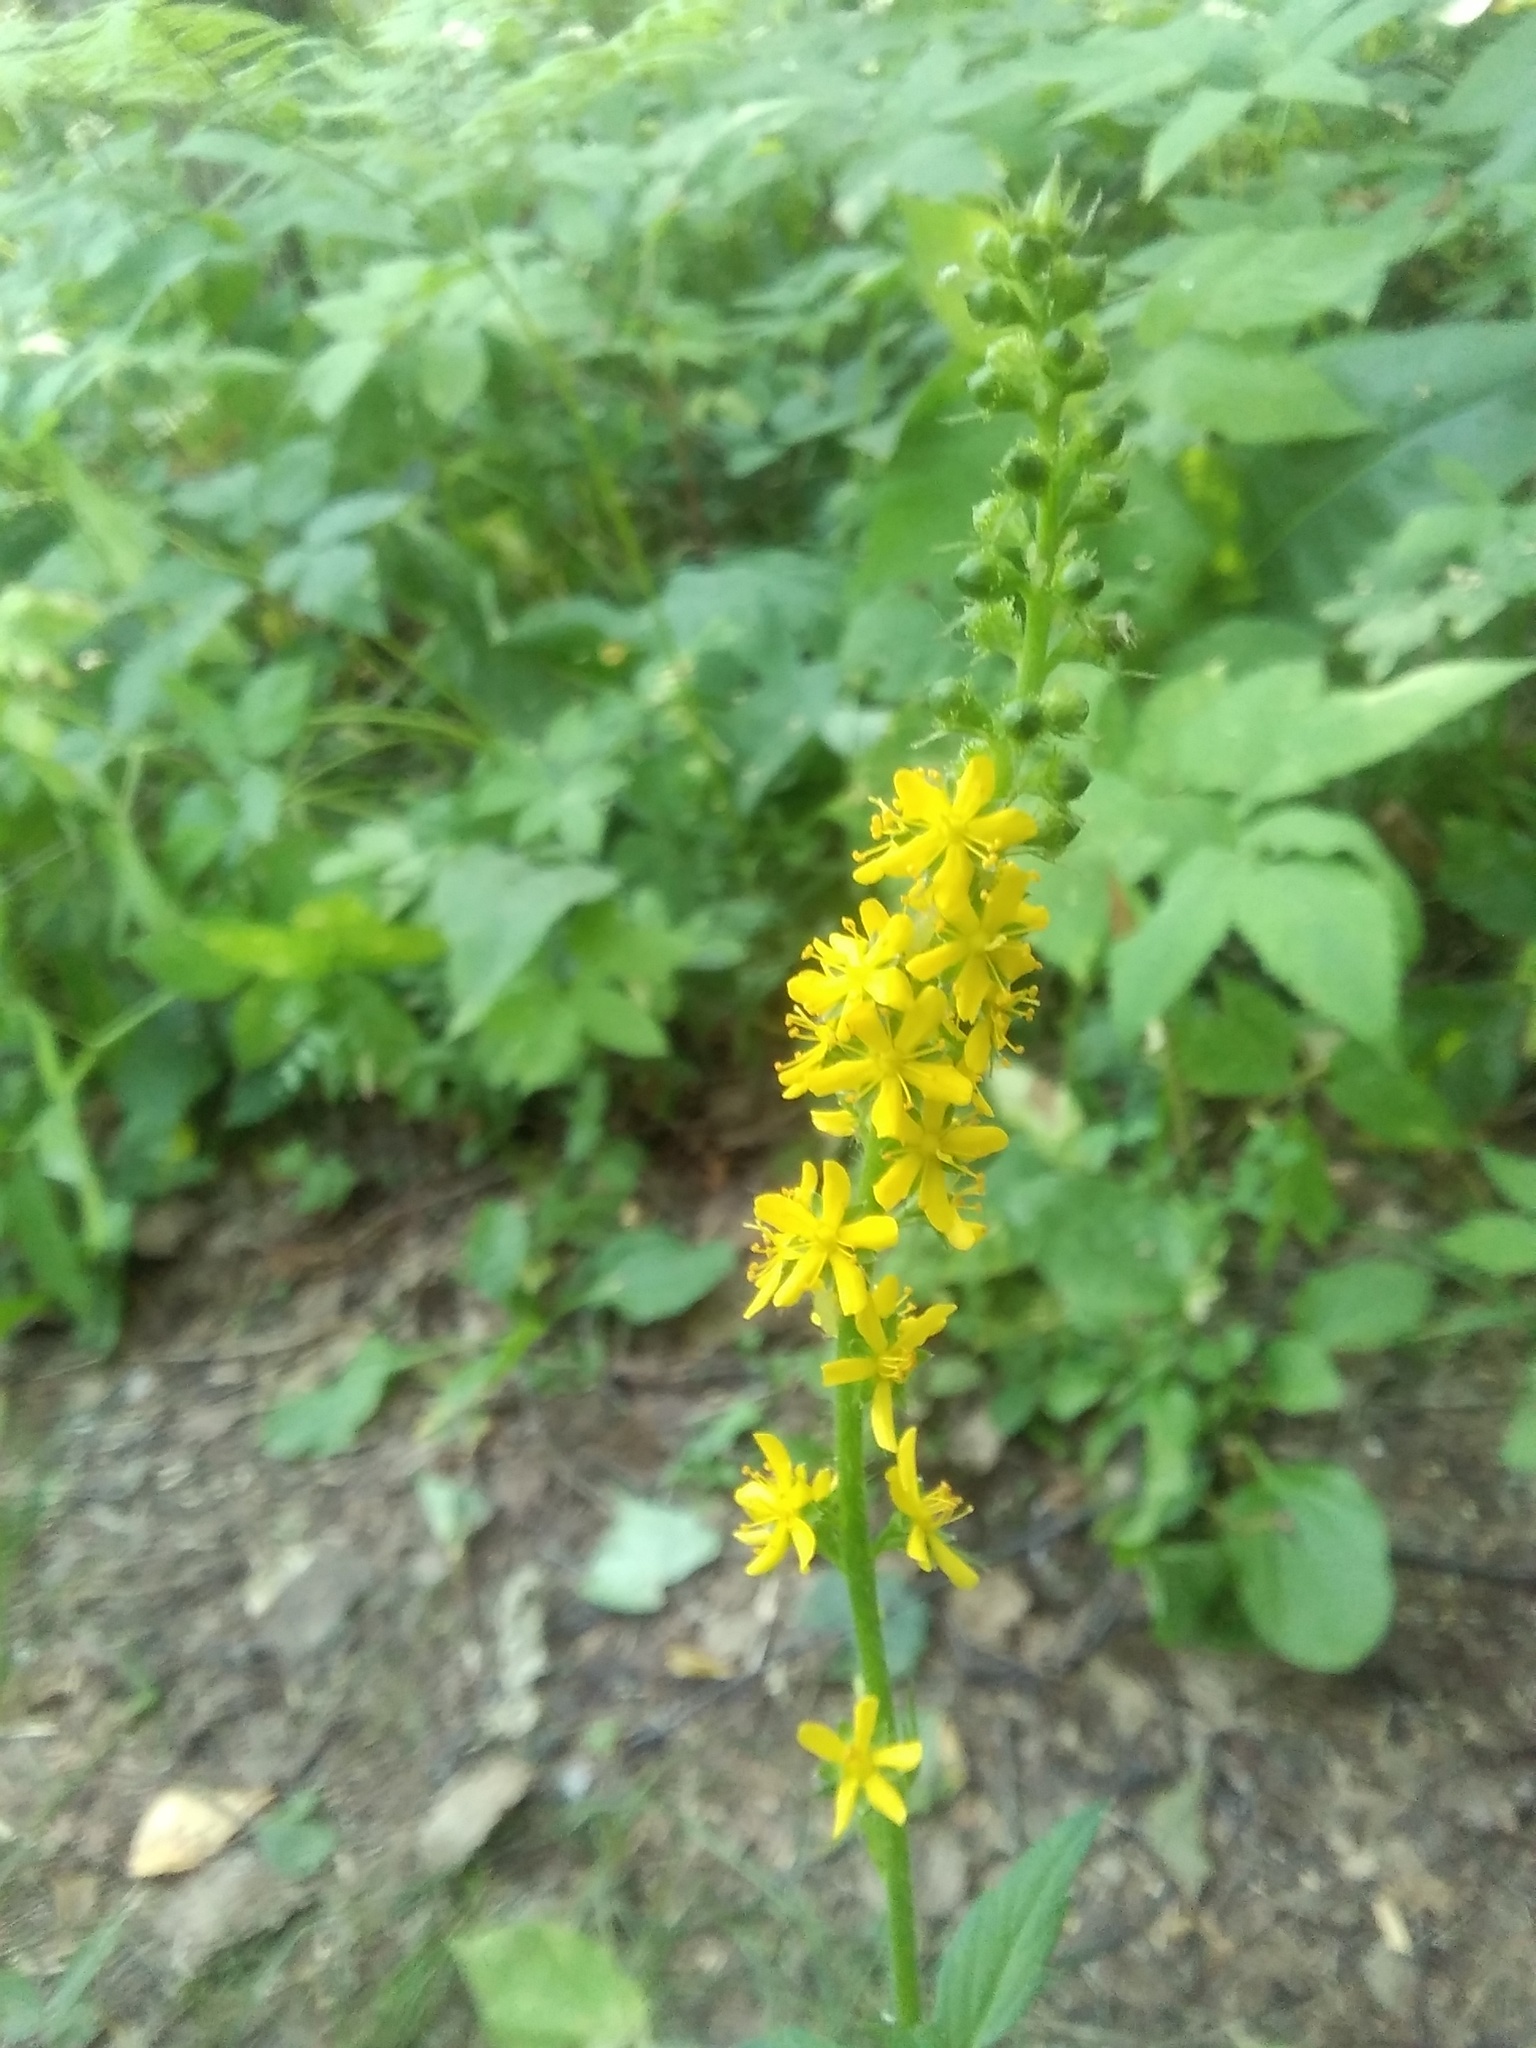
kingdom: Plantae
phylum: Tracheophyta
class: Magnoliopsida
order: Rosales
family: Rosaceae
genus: Agrimonia
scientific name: Agrimonia pilosa
